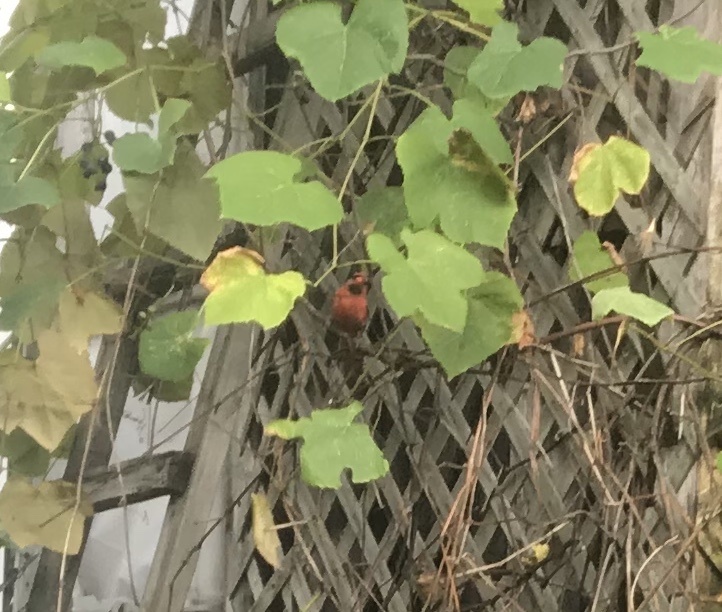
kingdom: Animalia
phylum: Chordata
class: Aves
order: Passeriformes
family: Cardinalidae
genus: Cardinalis
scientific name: Cardinalis cardinalis
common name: Northern cardinal
